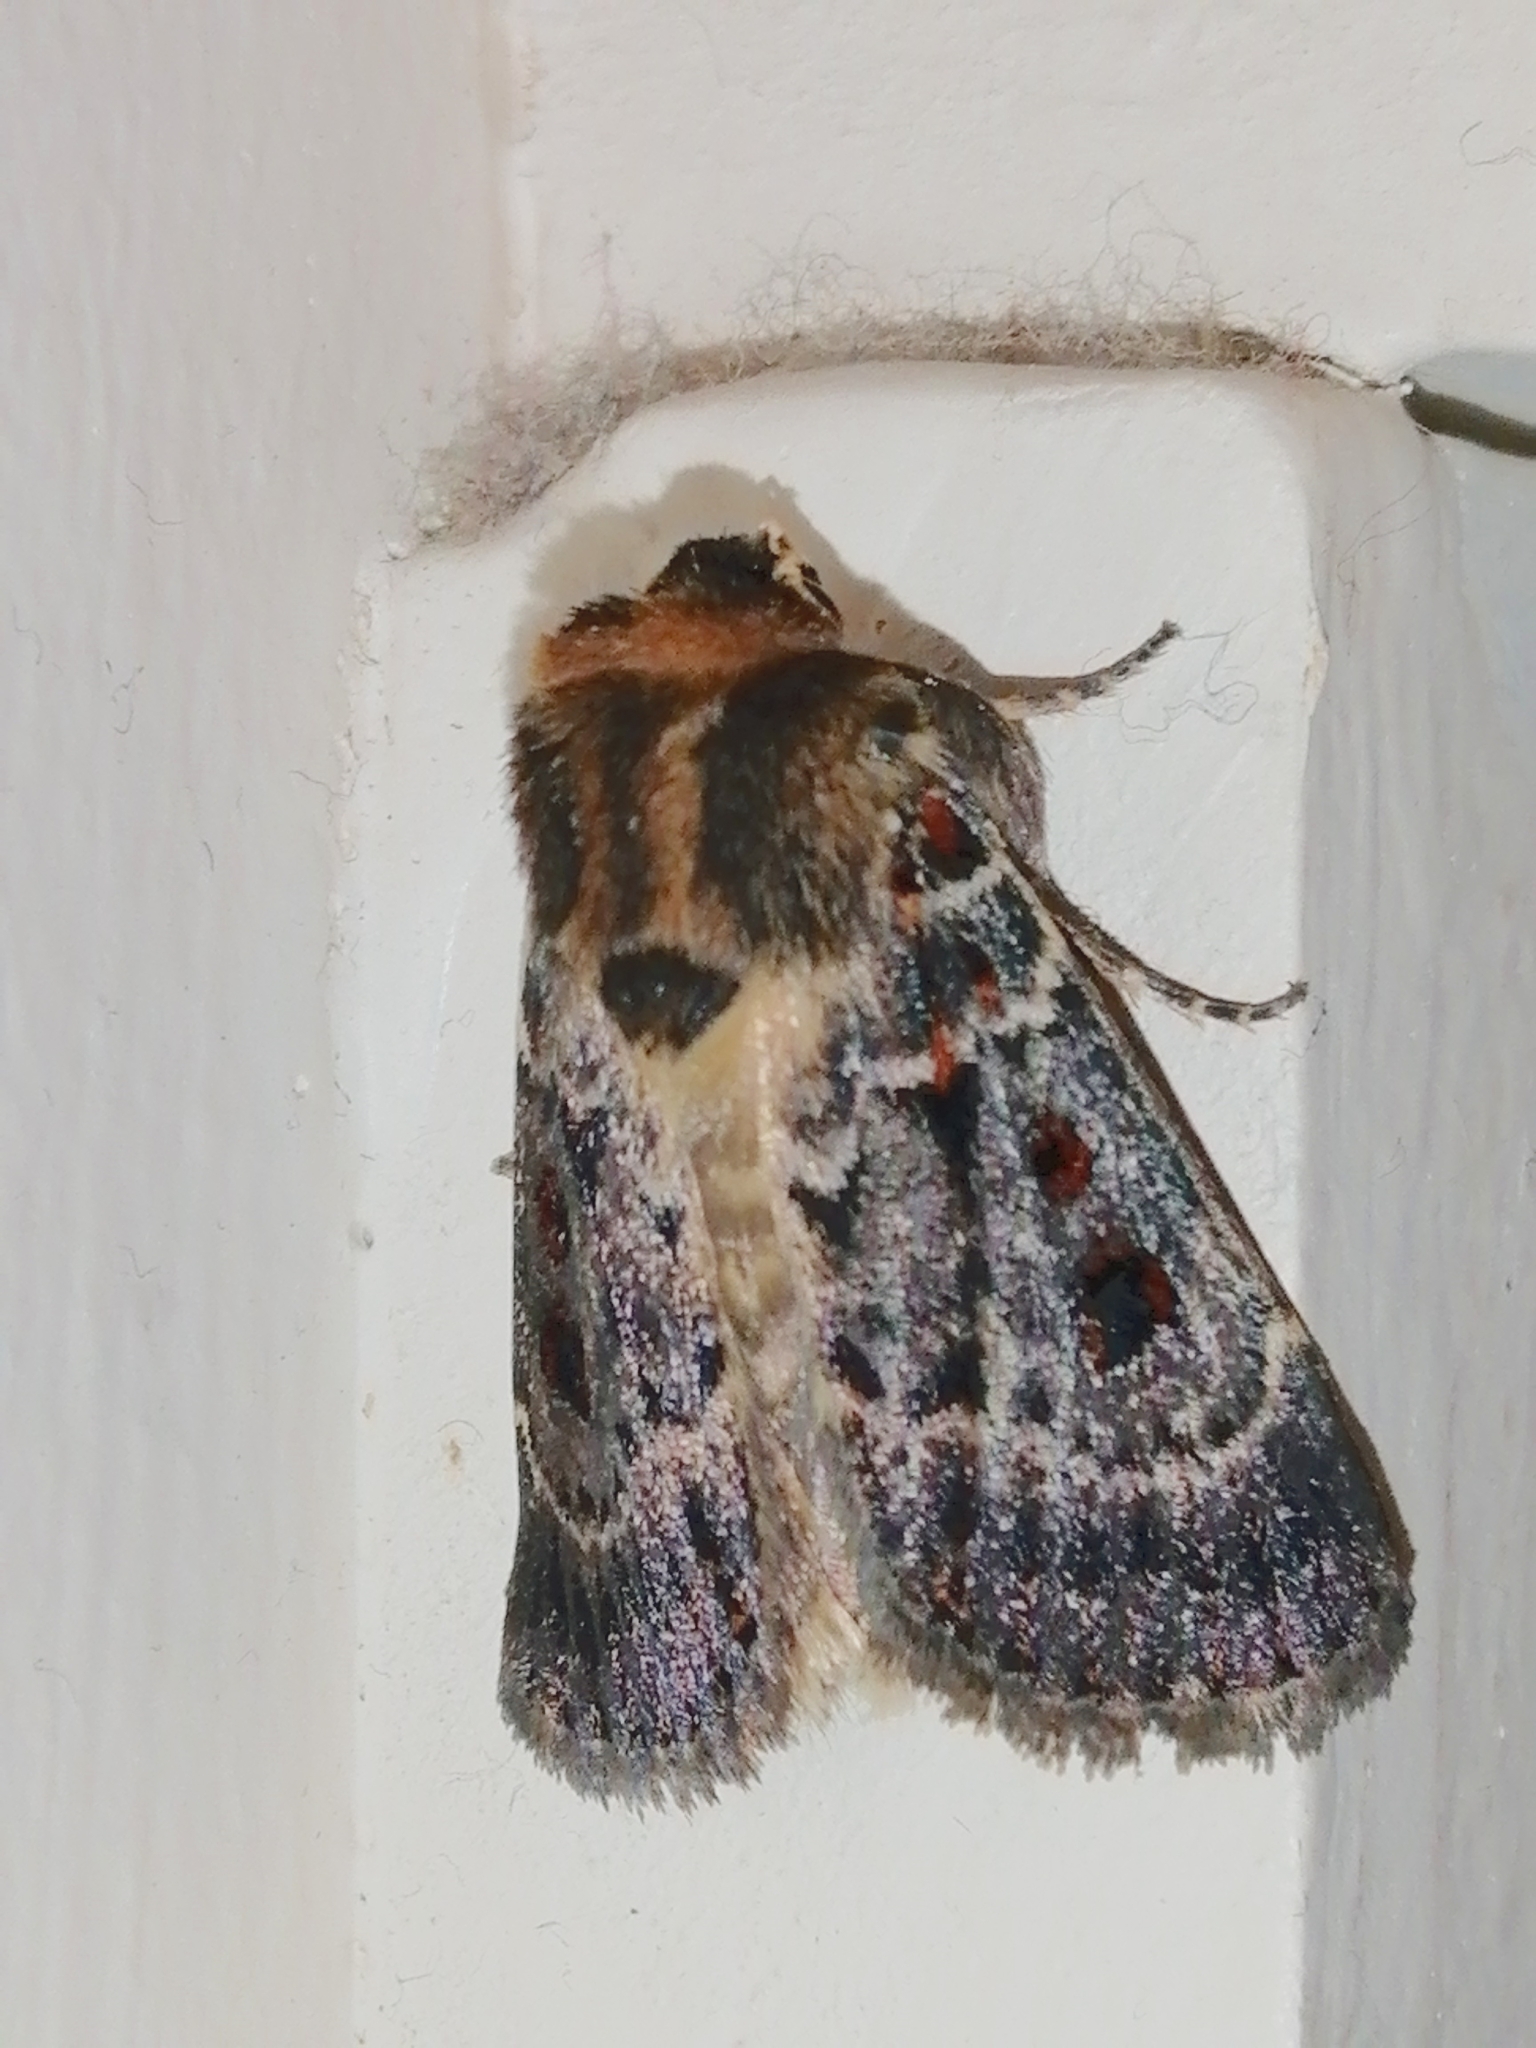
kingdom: Animalia
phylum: Arthropoda
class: Insecta
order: Lepidoptera
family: Noctuidae
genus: Proteuxoa
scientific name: Proteuxoa sanguinipuncta
